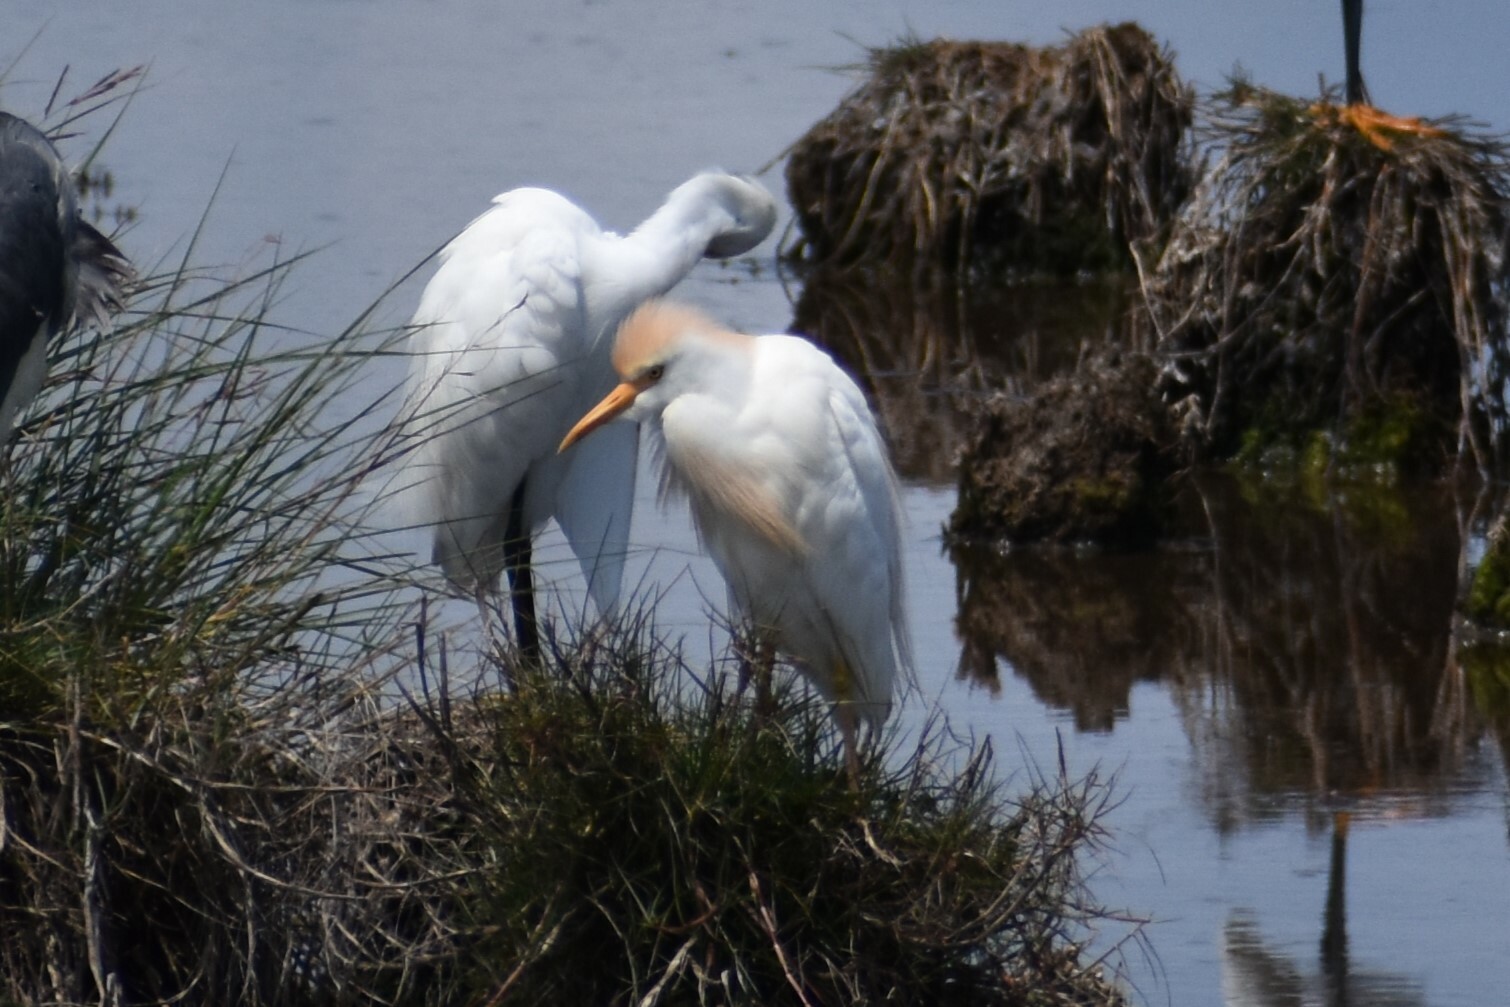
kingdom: Animalia
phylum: Chordata
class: Aves
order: Pelecaniformes
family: Ardeidae
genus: Bubulcus
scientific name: Bubulcus ibis
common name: Cattle egret
